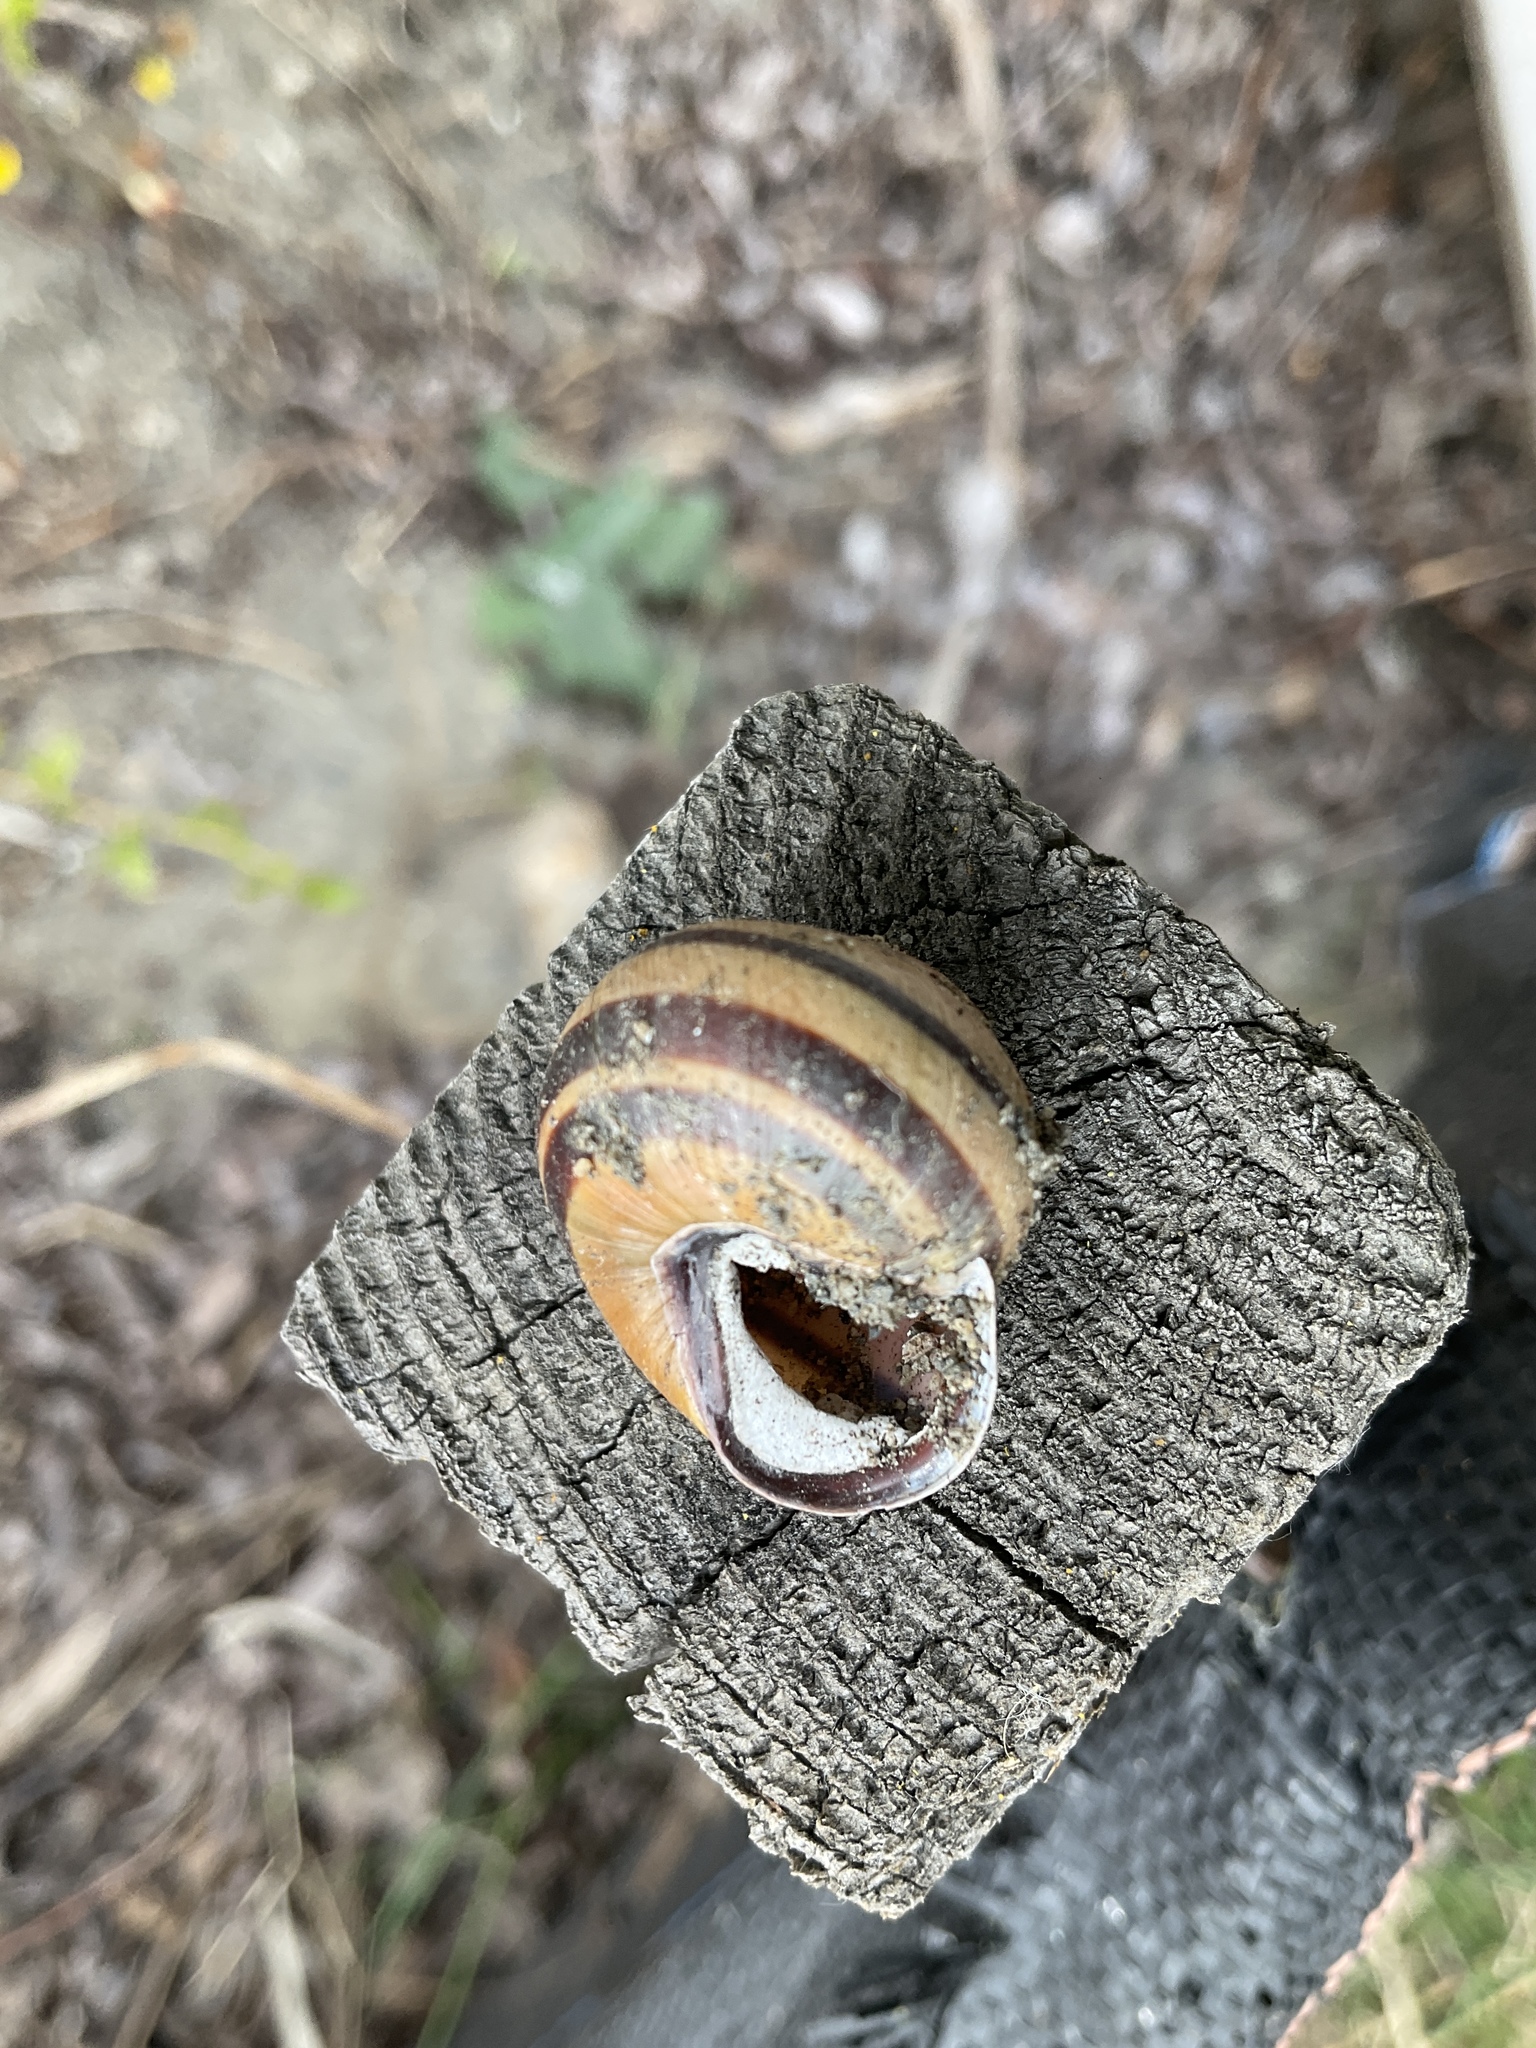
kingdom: Animalia
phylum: Mollusca
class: Gastropoda
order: Stylommatophora
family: Helicidae
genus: Cepaea
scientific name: Cepaea nemoralis
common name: Grovesnail
